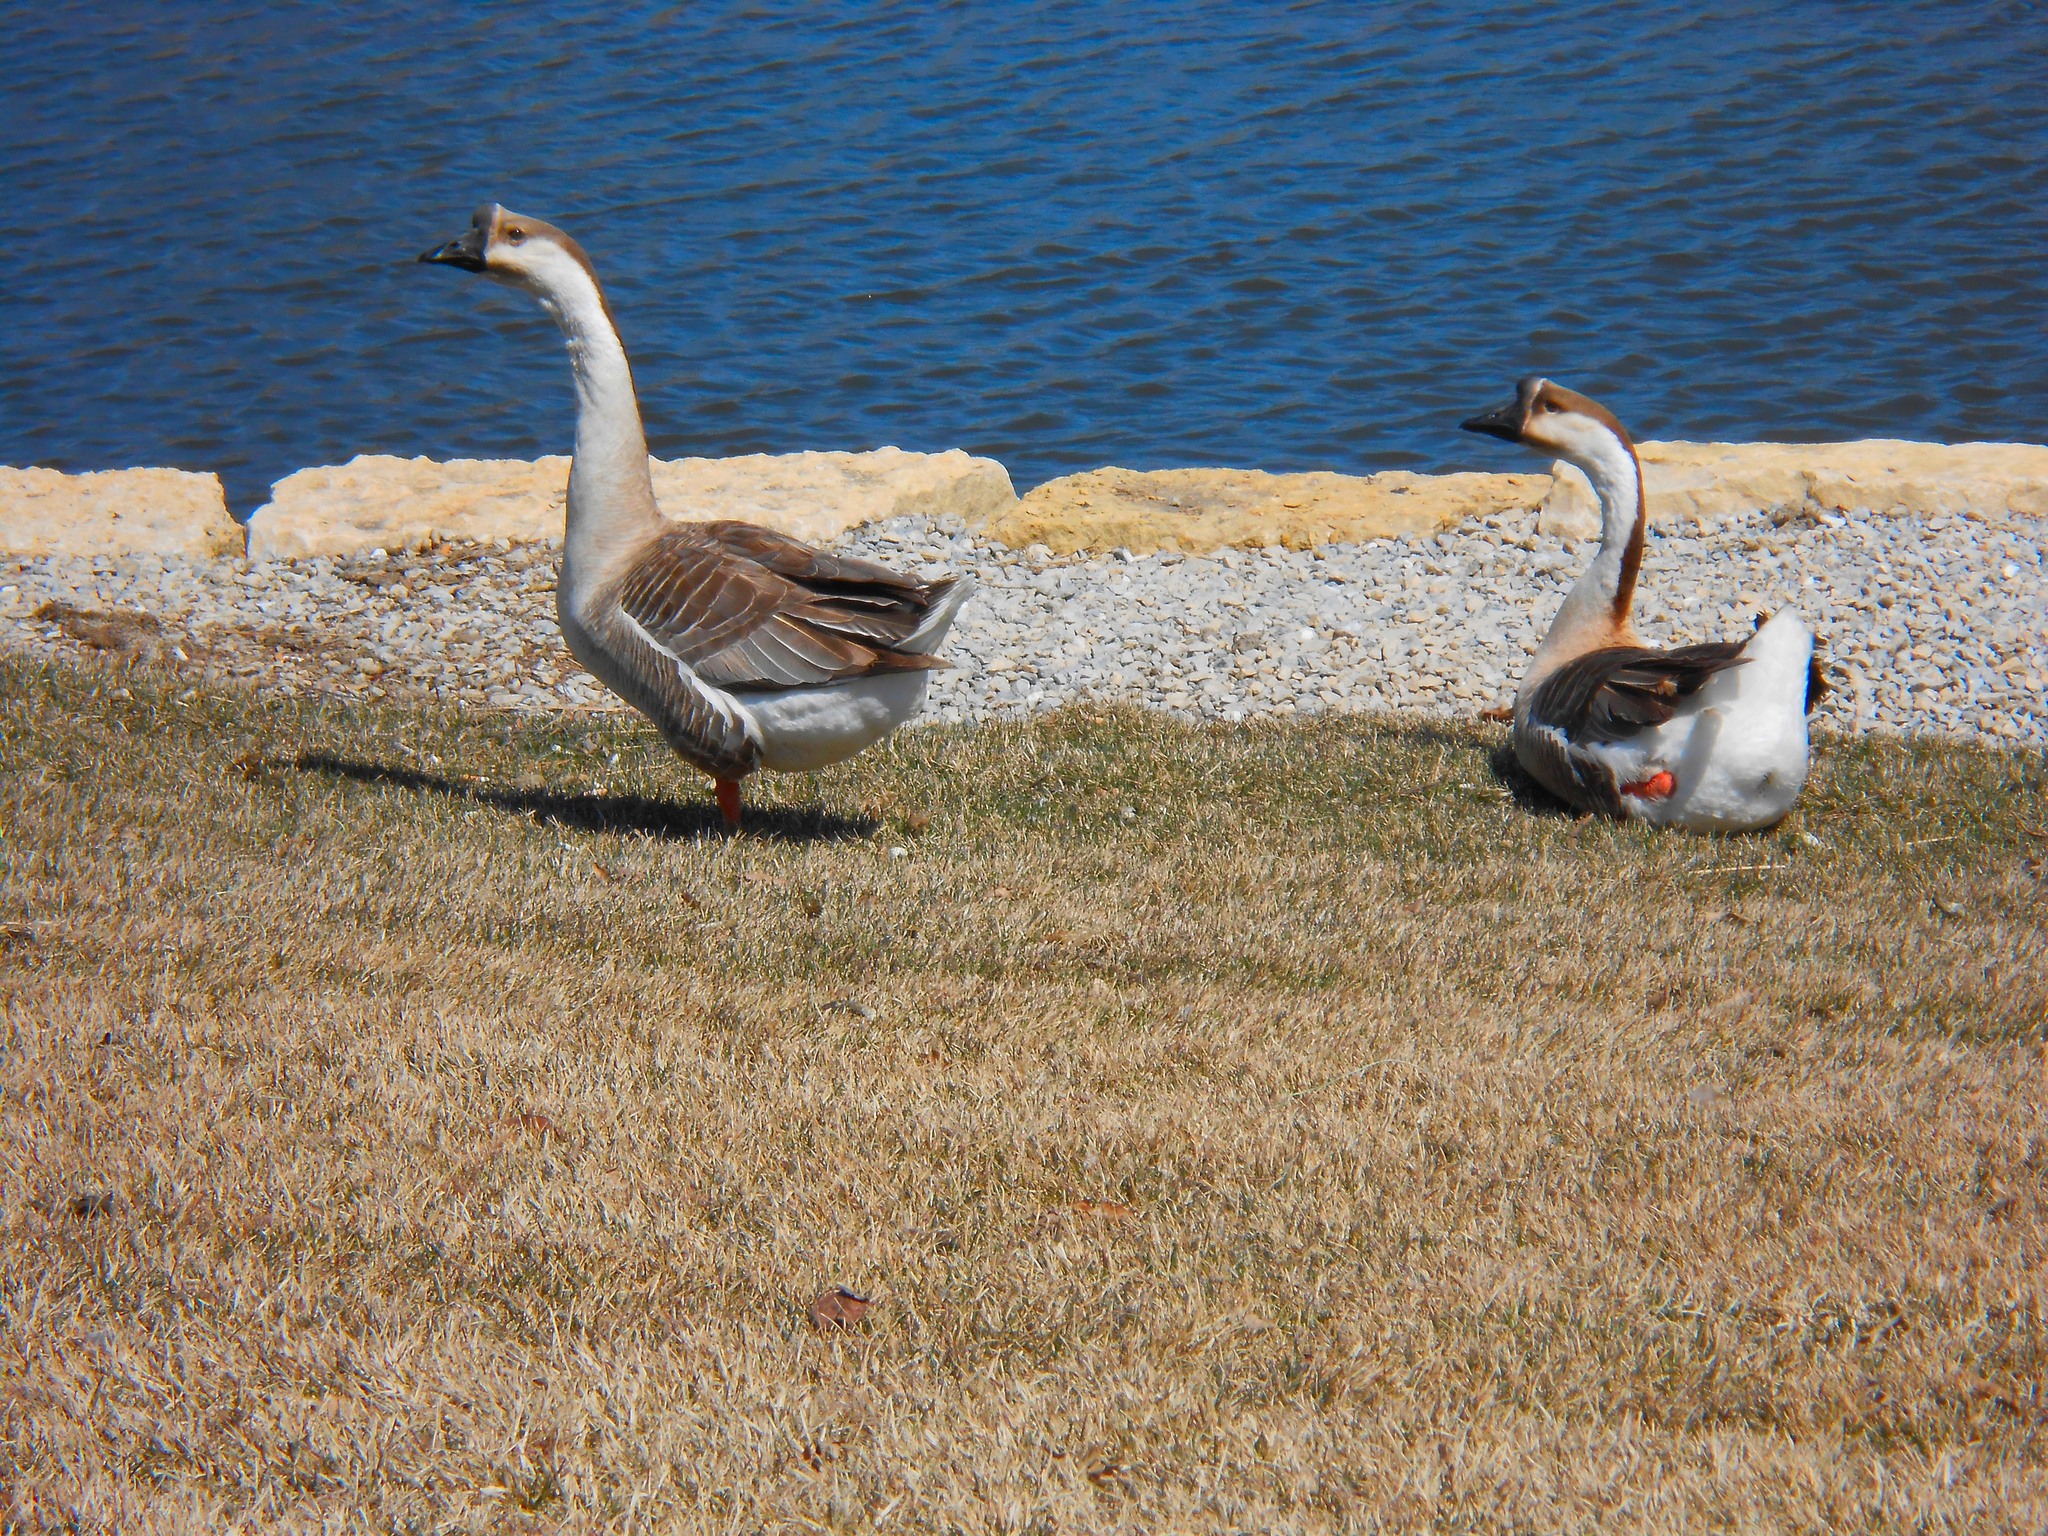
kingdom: Animalia
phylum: Chordata
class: Aves
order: Anseriformes
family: Anatidae
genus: Anser
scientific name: Anser cygnoides
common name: Swan goose
